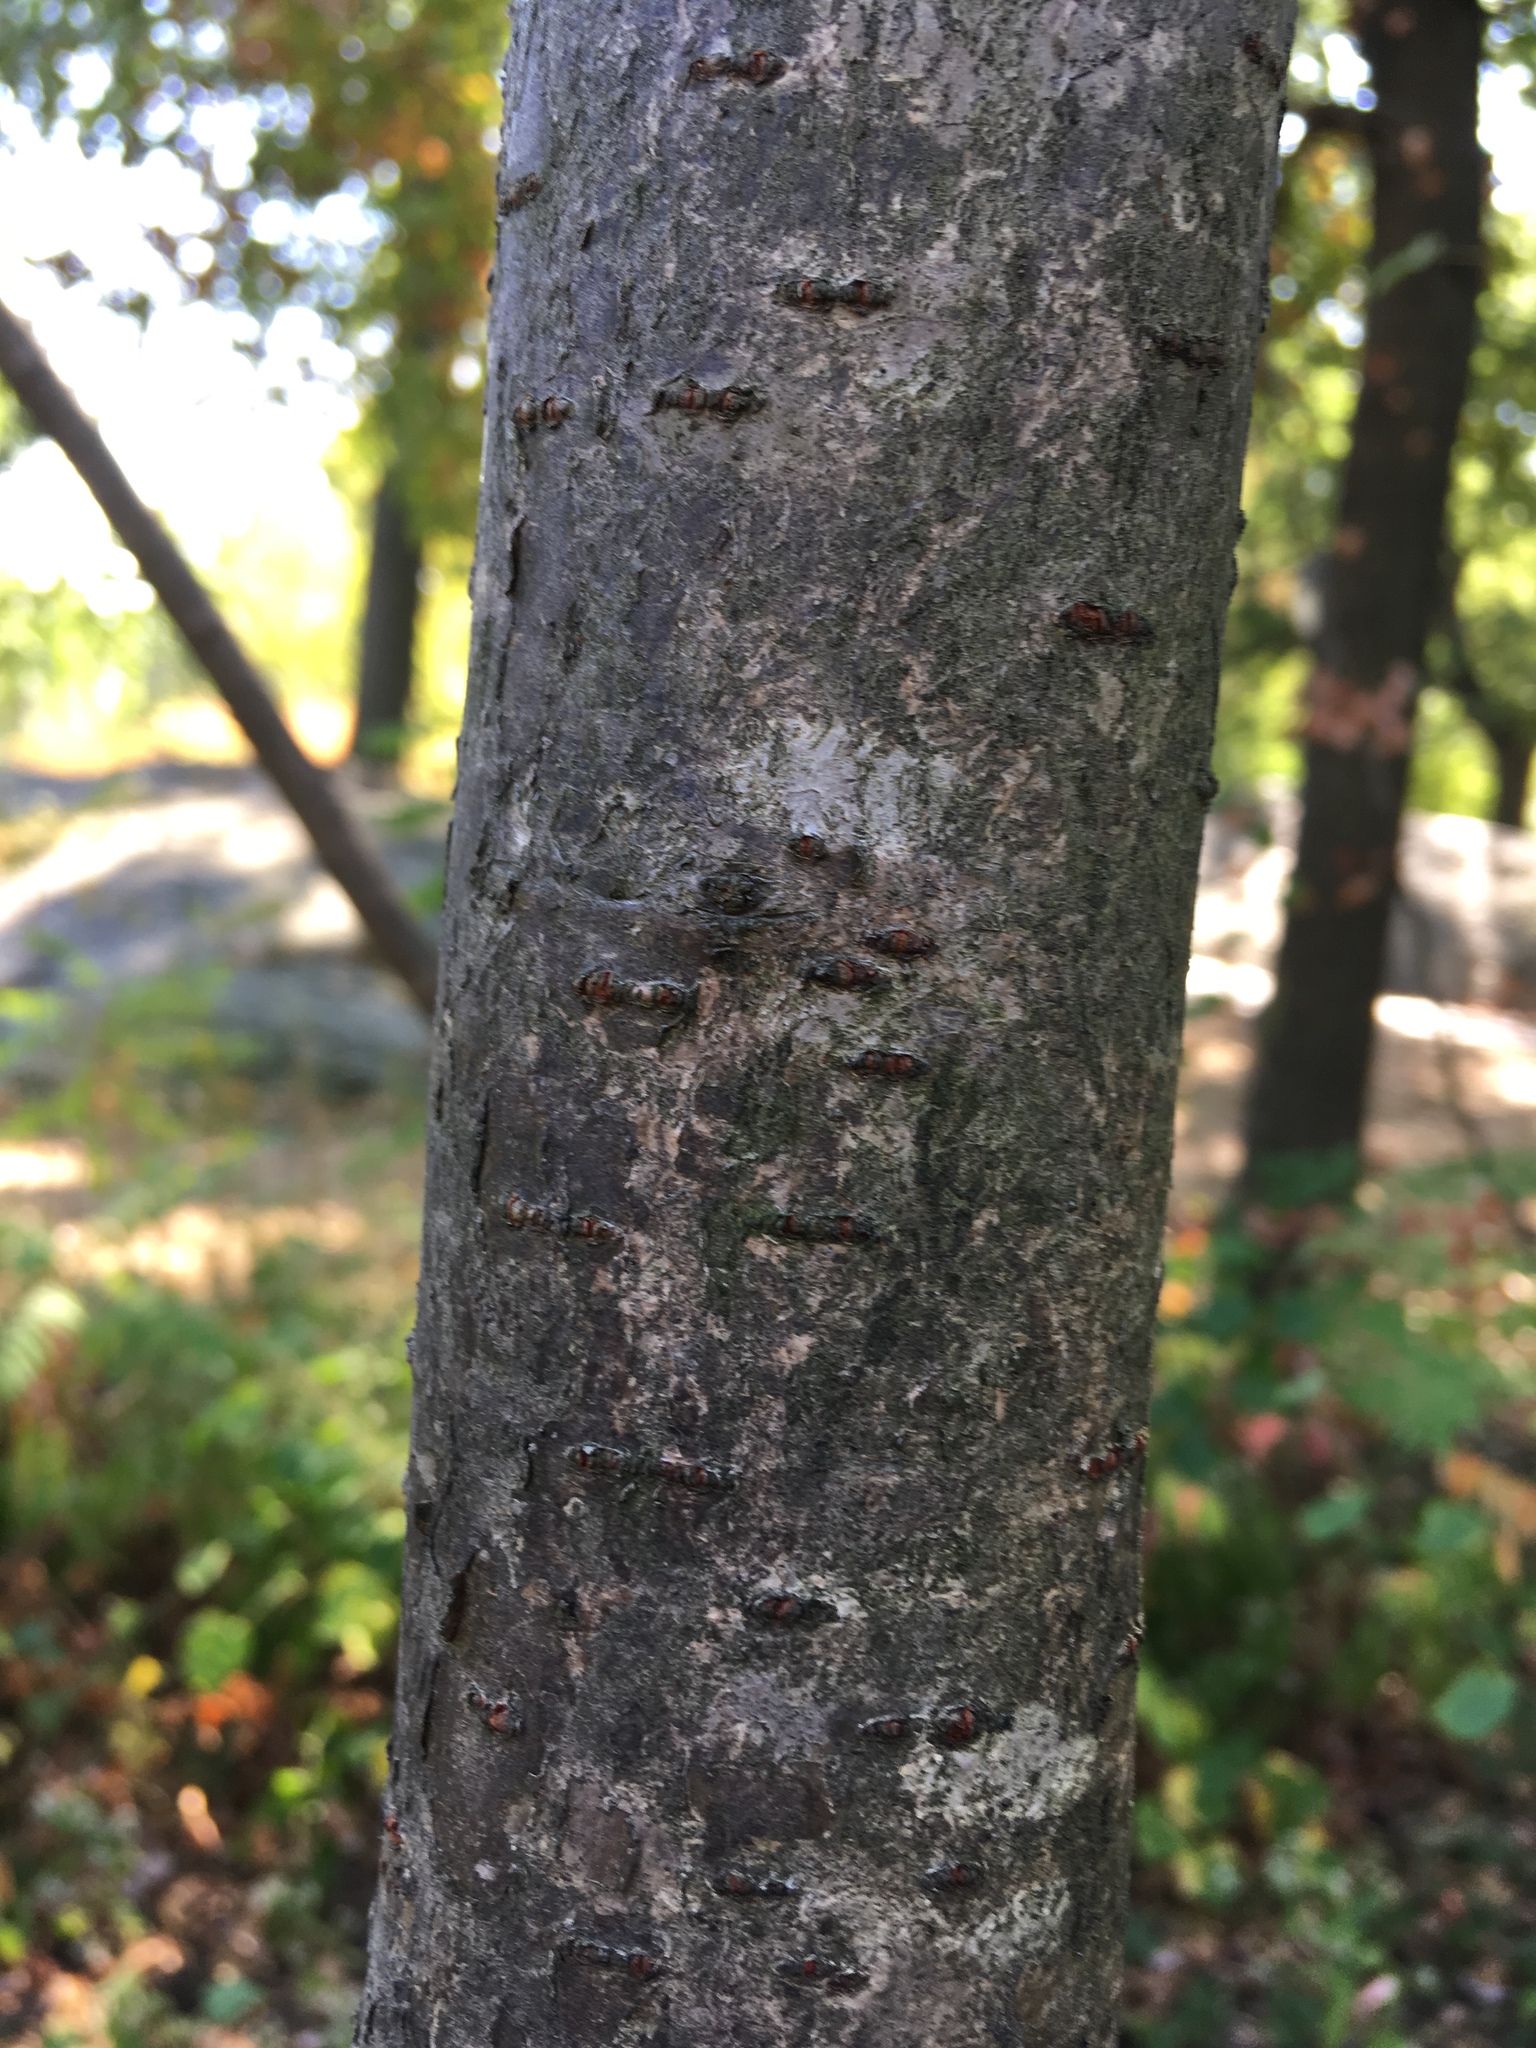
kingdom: Plantae
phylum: Tracheophyta
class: Magnoliopsida
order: Sapindales
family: Anacardiaceae
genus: Rhus
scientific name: Rhus typhina
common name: Staghorn sumac
